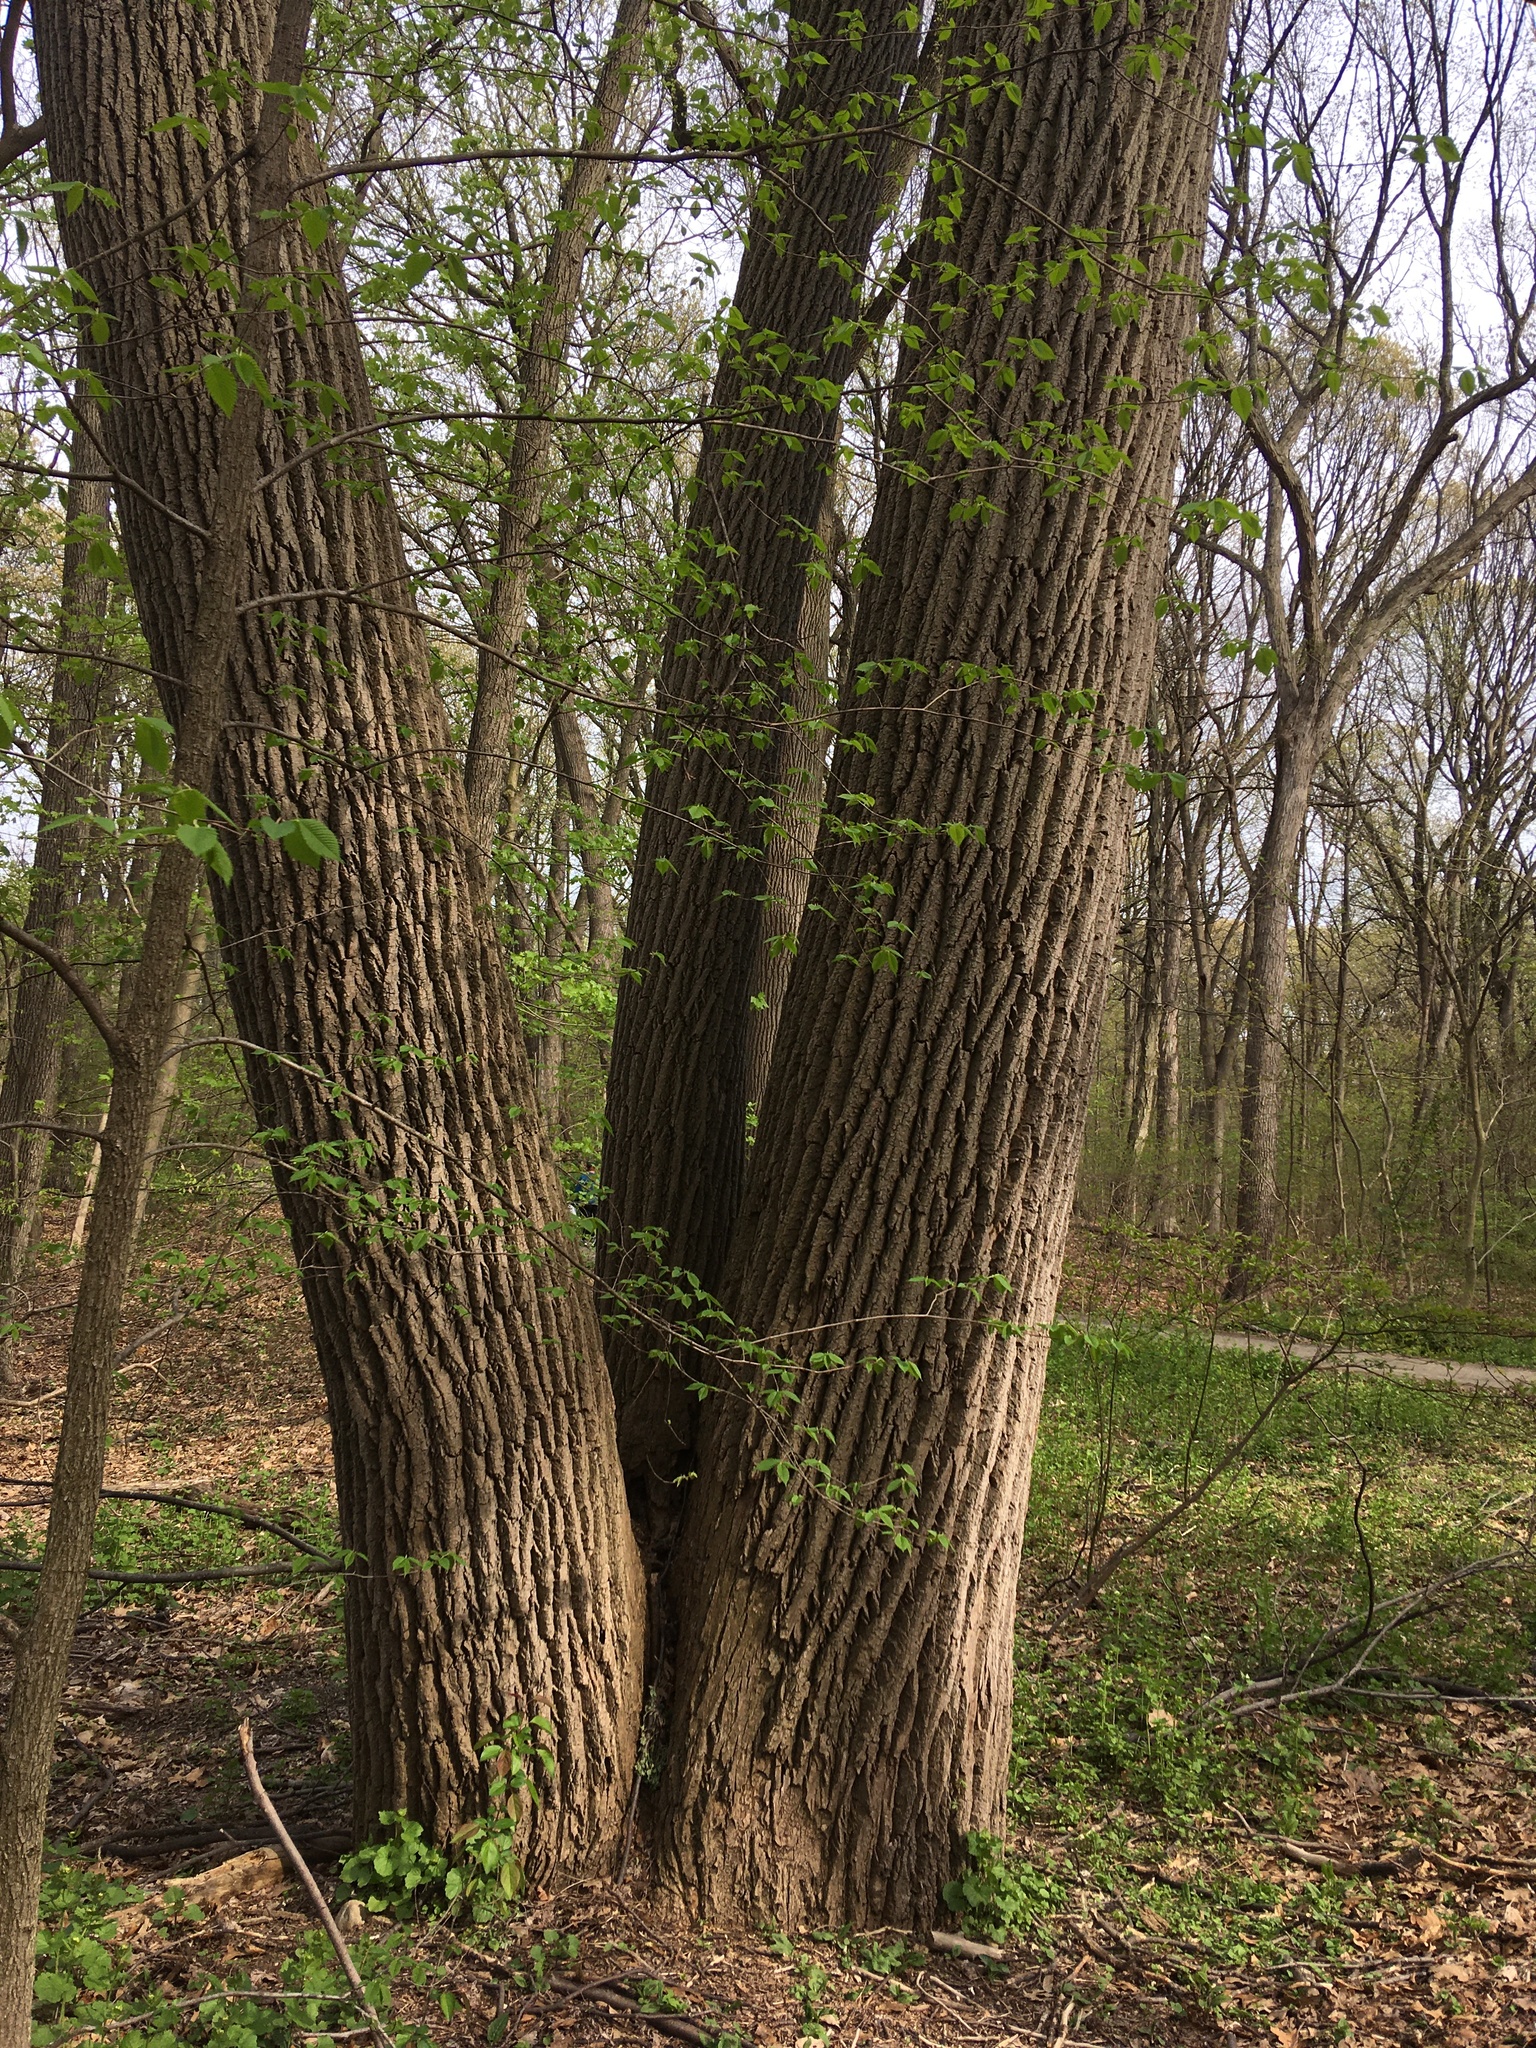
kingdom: Plantae
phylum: Tracheophyta
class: Magnoliopsida
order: Magnoliales
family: Magnoliaceae
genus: Liriodendron
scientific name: Liriodendron tulipifera
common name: Tulip tree
